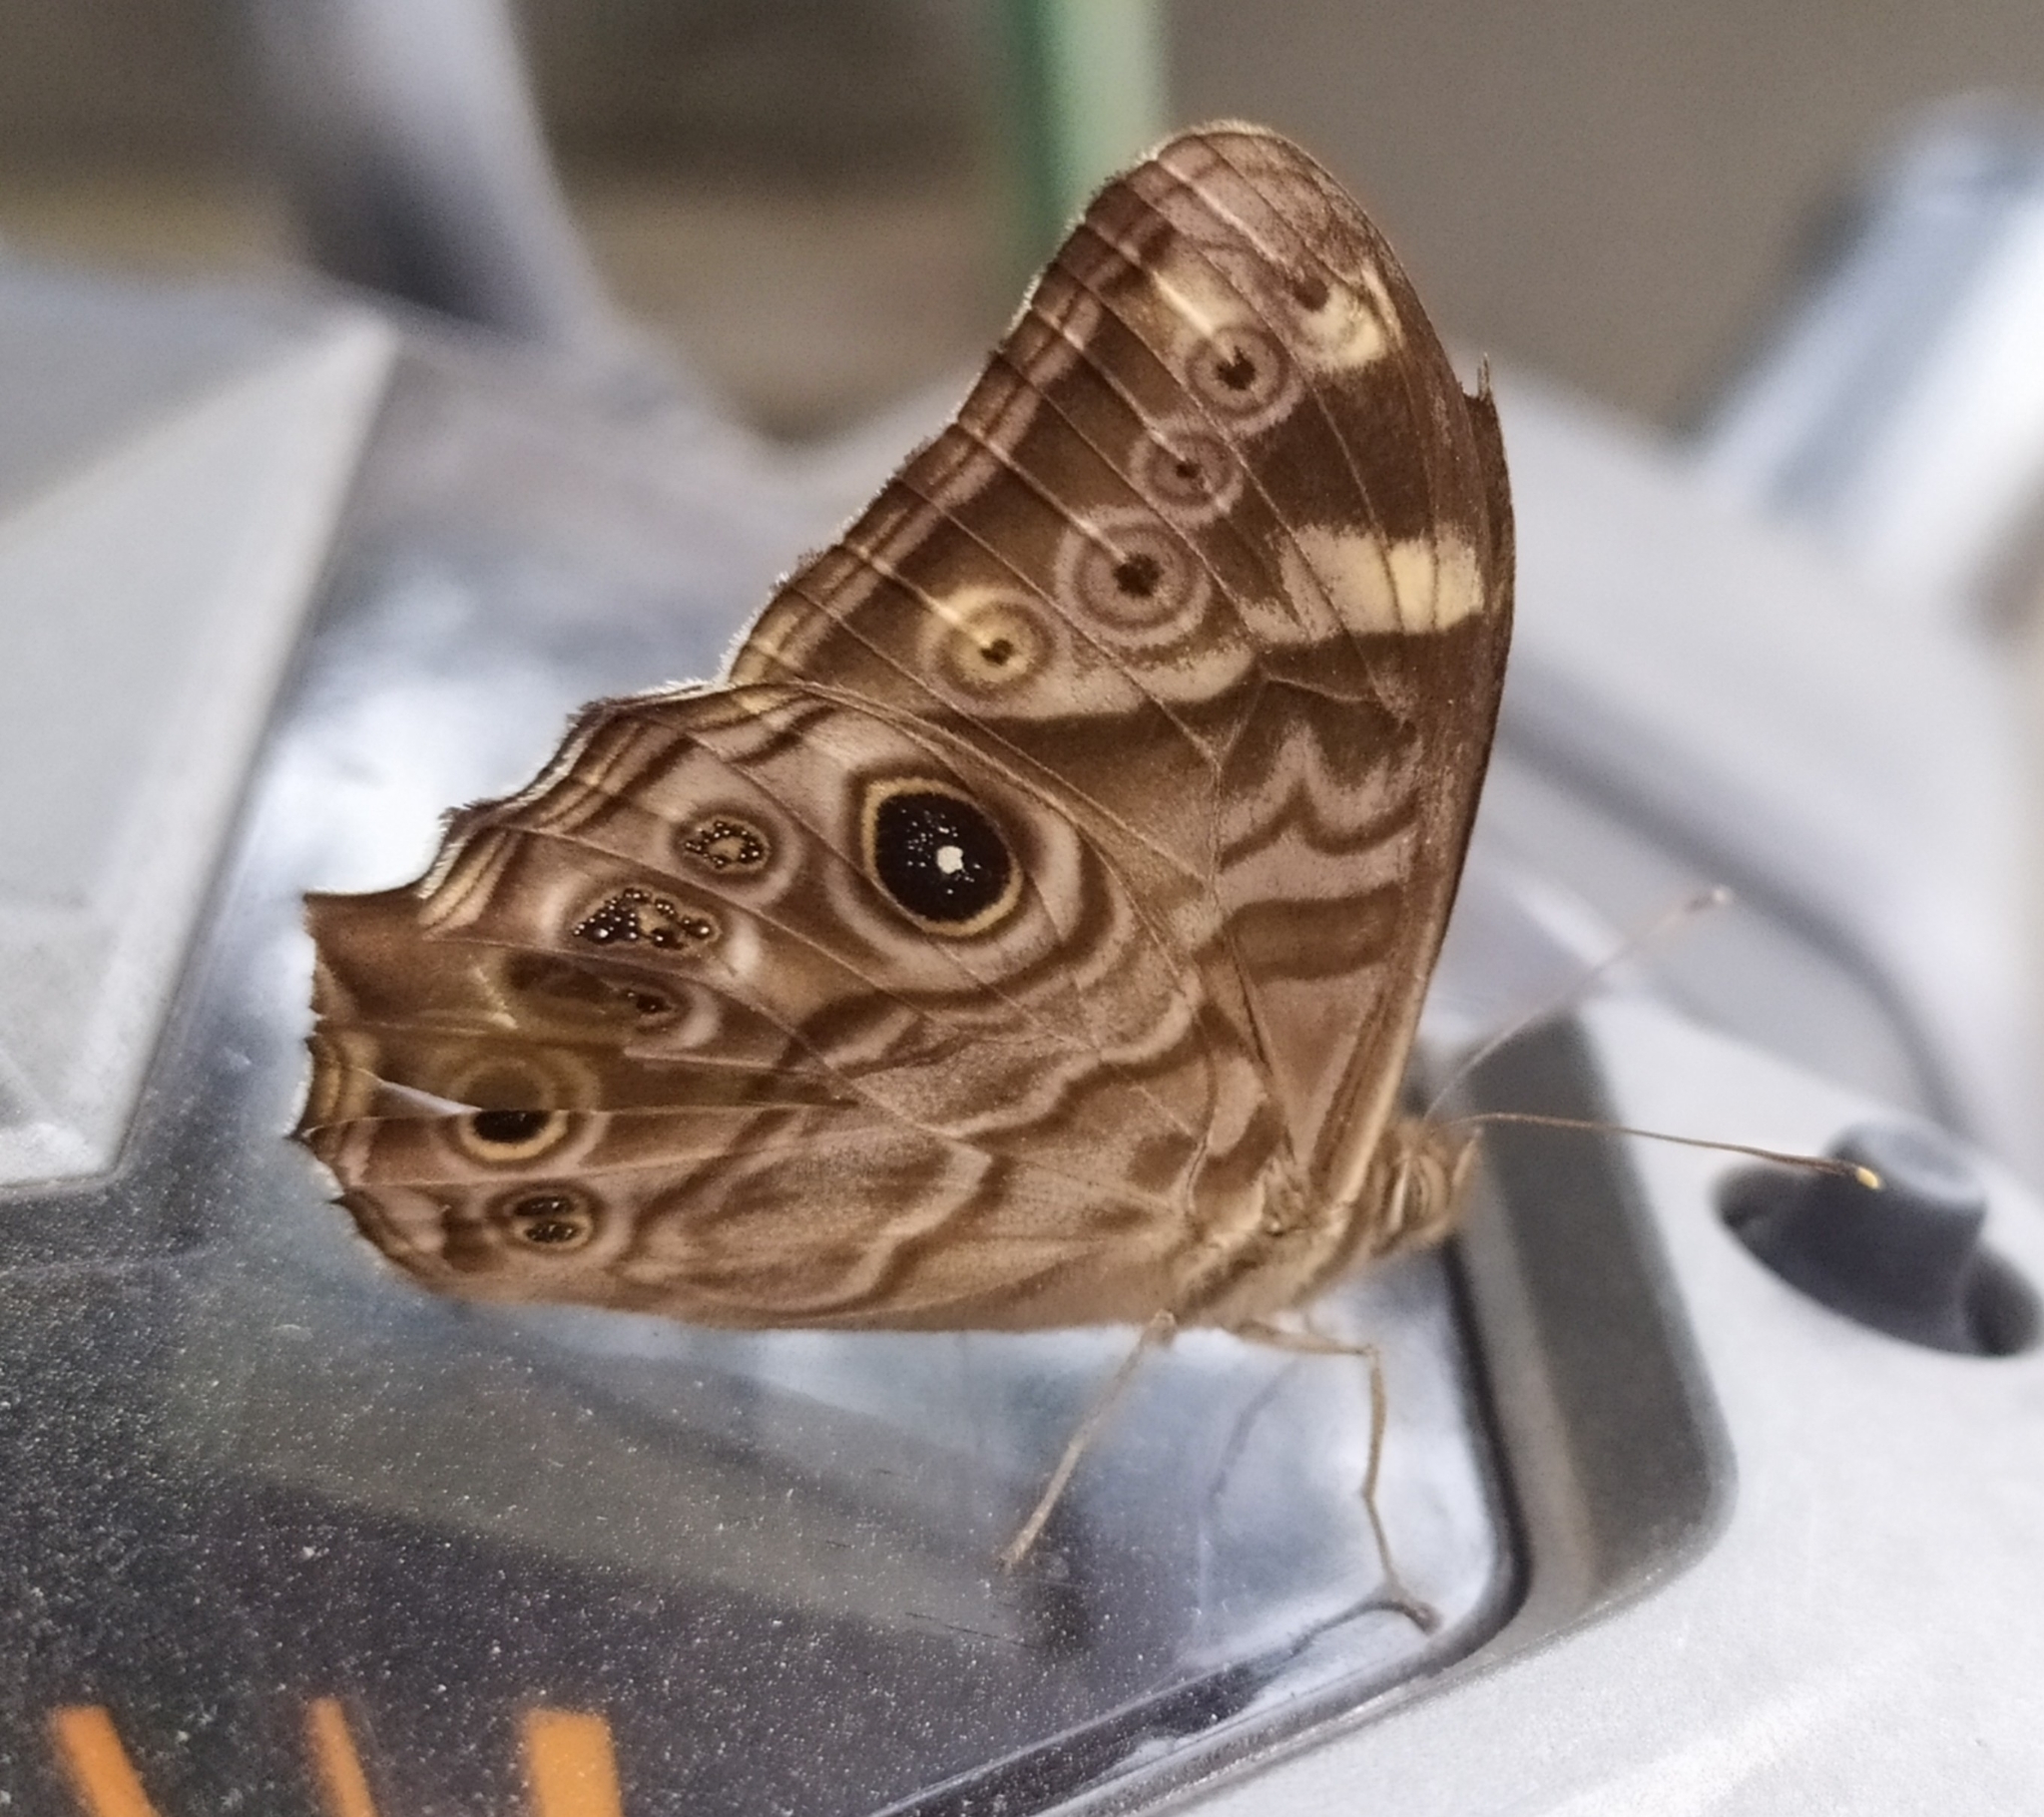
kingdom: Animalia
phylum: Arthropoda
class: Insecta
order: Lepidoptera
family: Nymphalidae
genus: Lethe
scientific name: Lethe rohria
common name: Common treebrown
